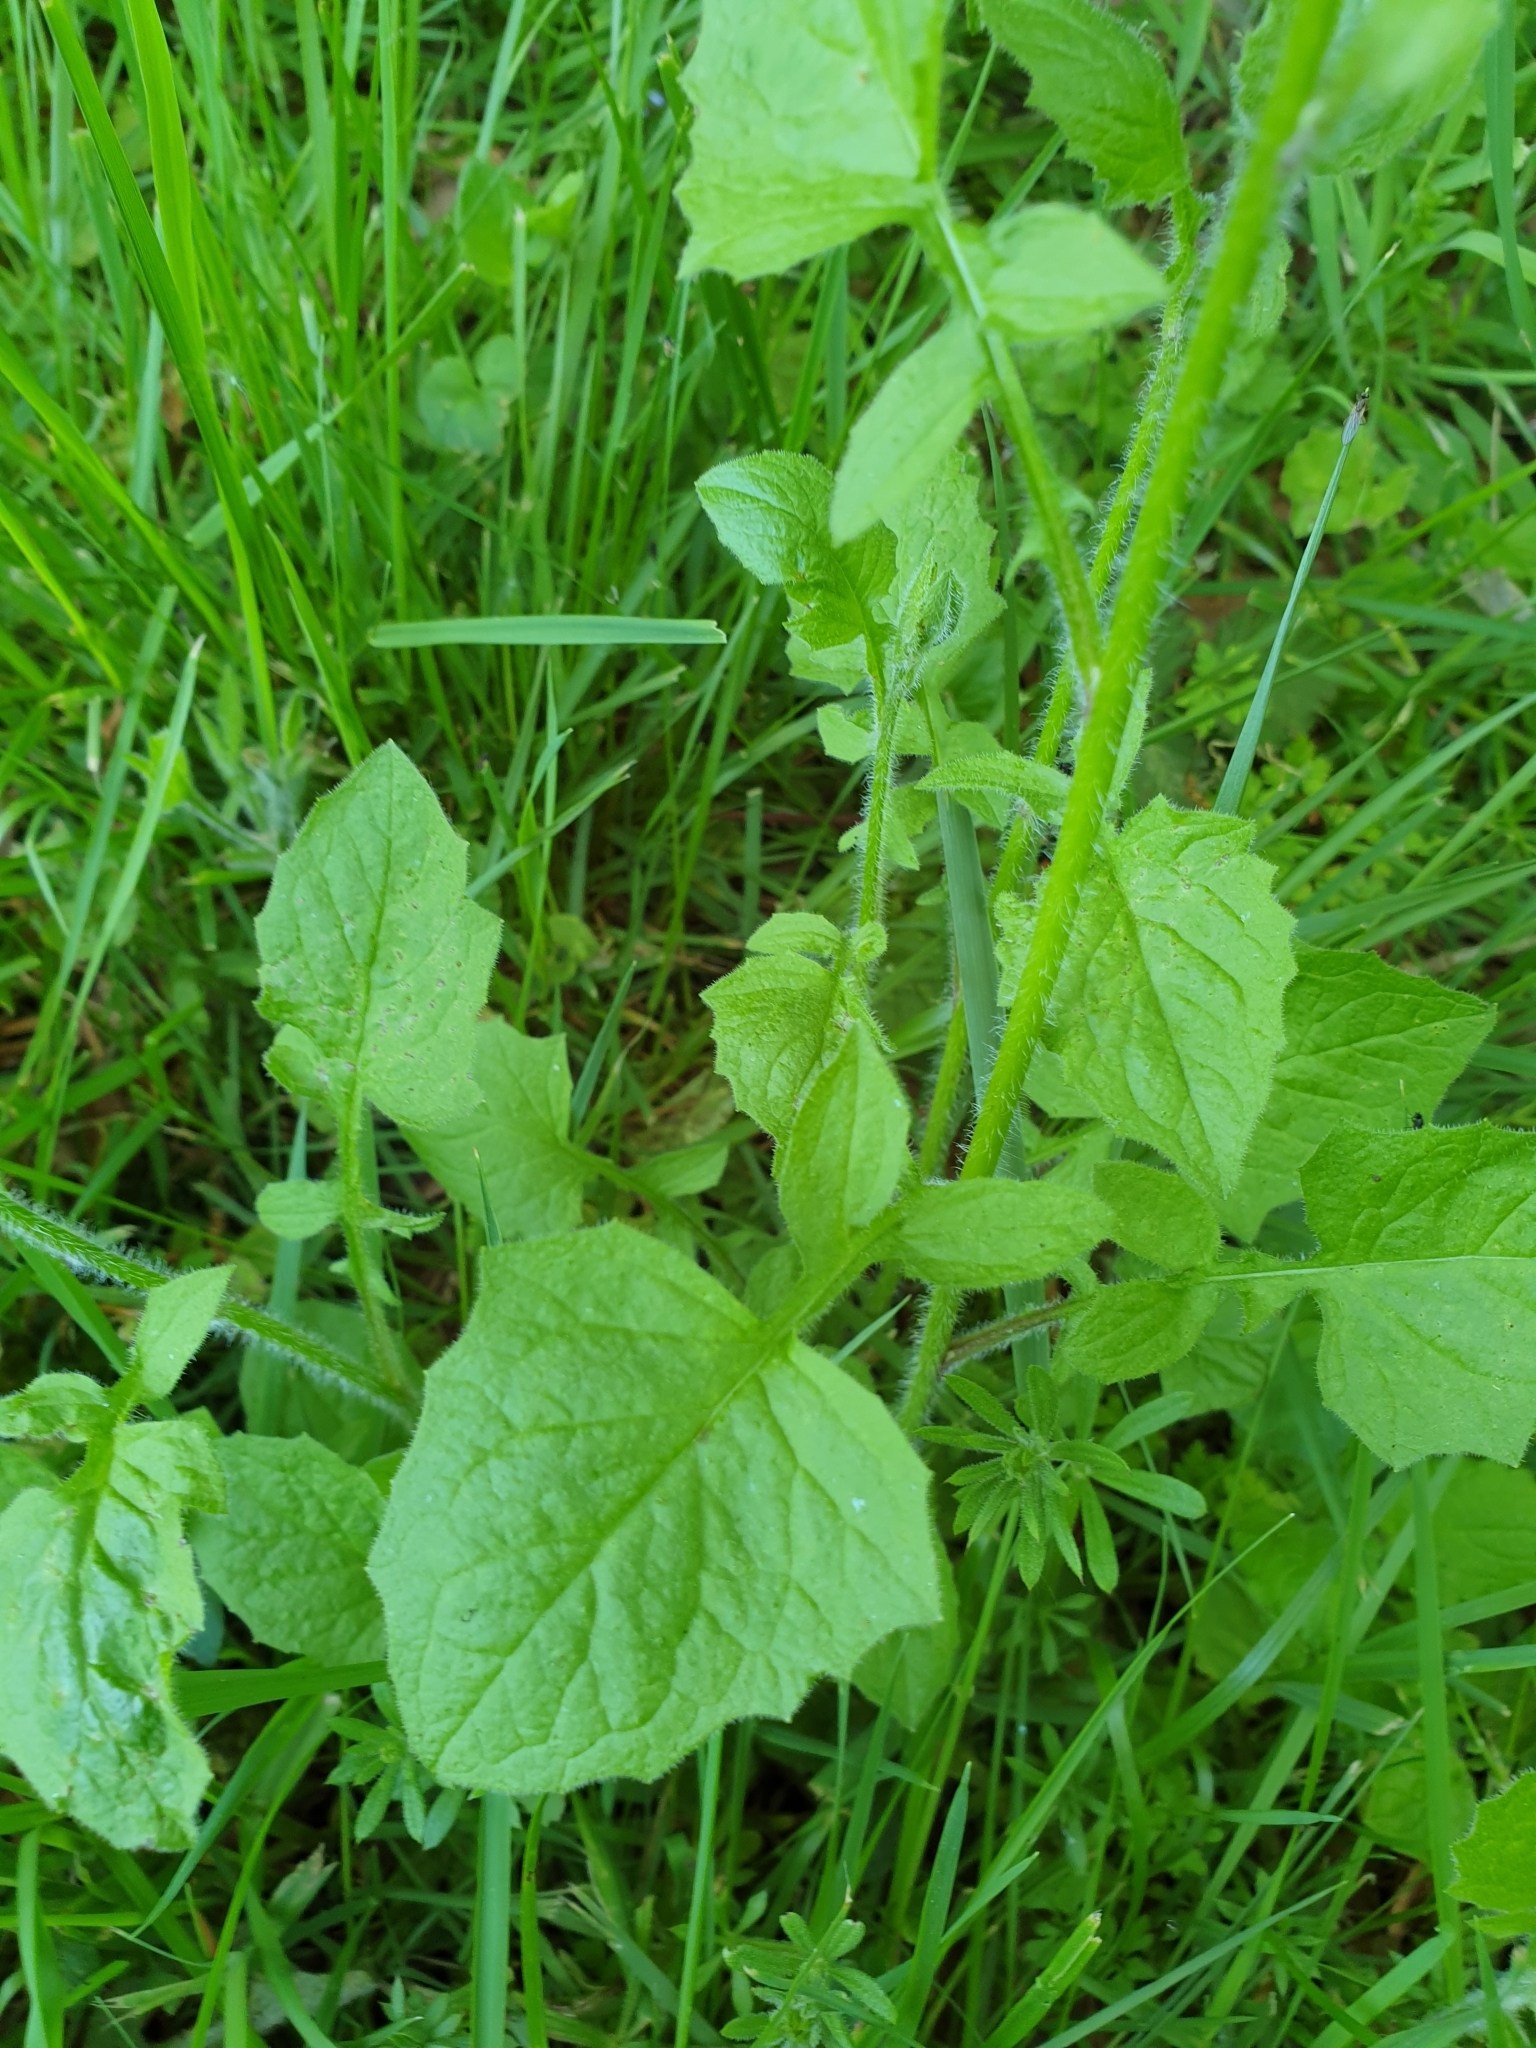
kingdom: Plantae
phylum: Tracheophyta
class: Magnoliopsida
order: Asterales
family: Asteraceae
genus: Lapsana
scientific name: Lapsana communis
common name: Nipplewort
